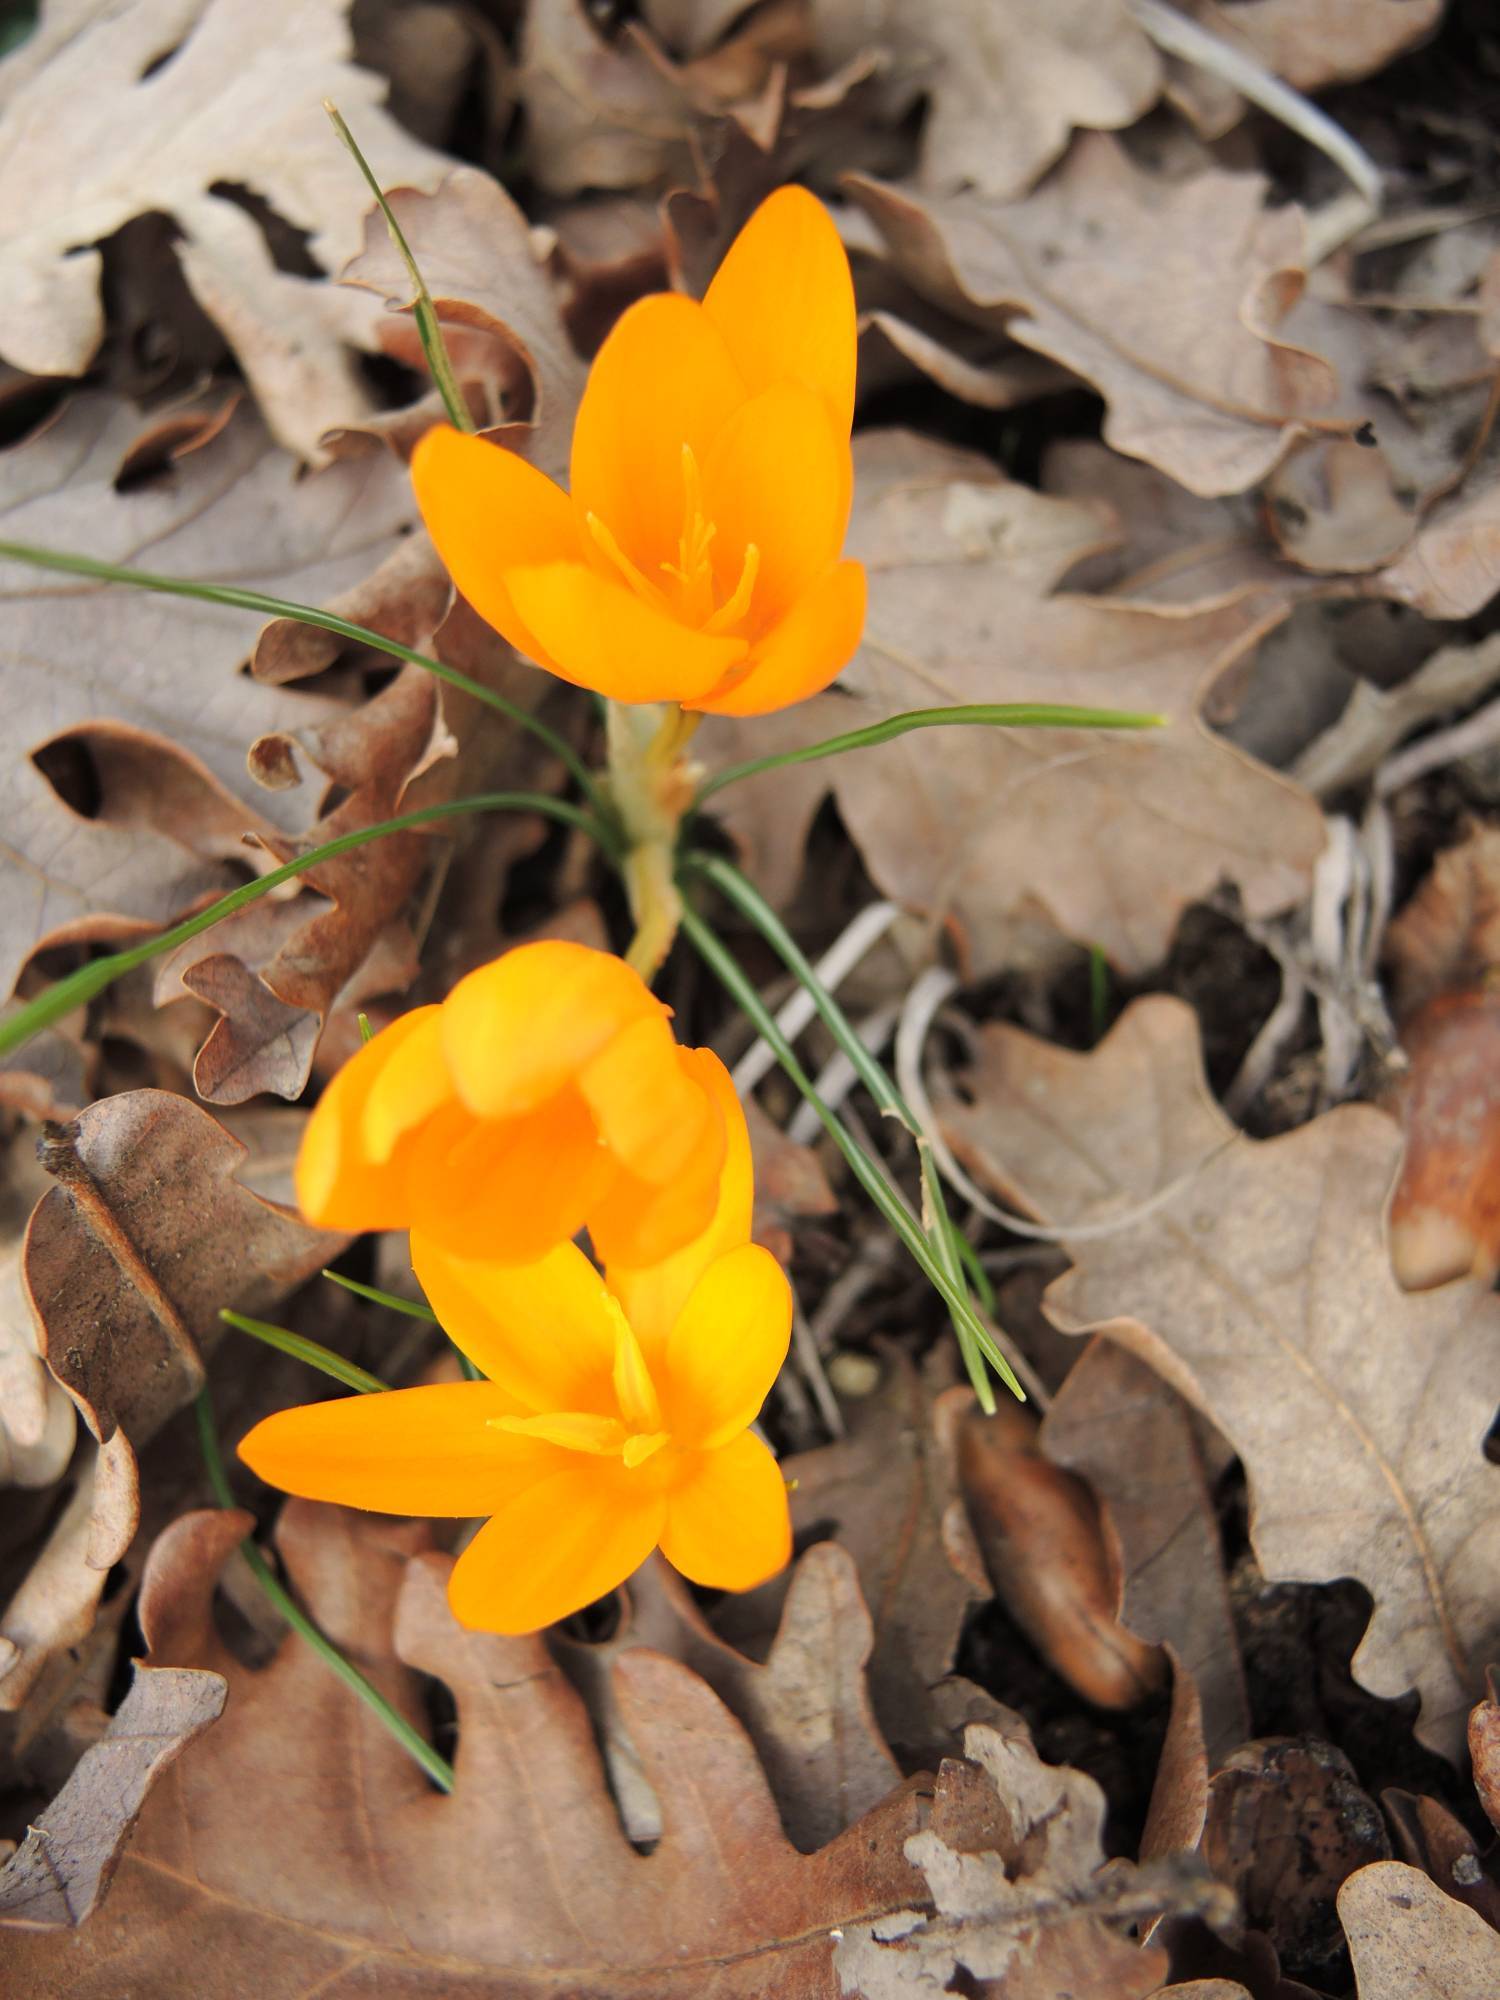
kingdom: Plantae
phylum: Tracheophyta
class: Liliopsida
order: Asparagales
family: Iridaceae
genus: Crocus
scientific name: Crocus flavus
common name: Yellow crocus
